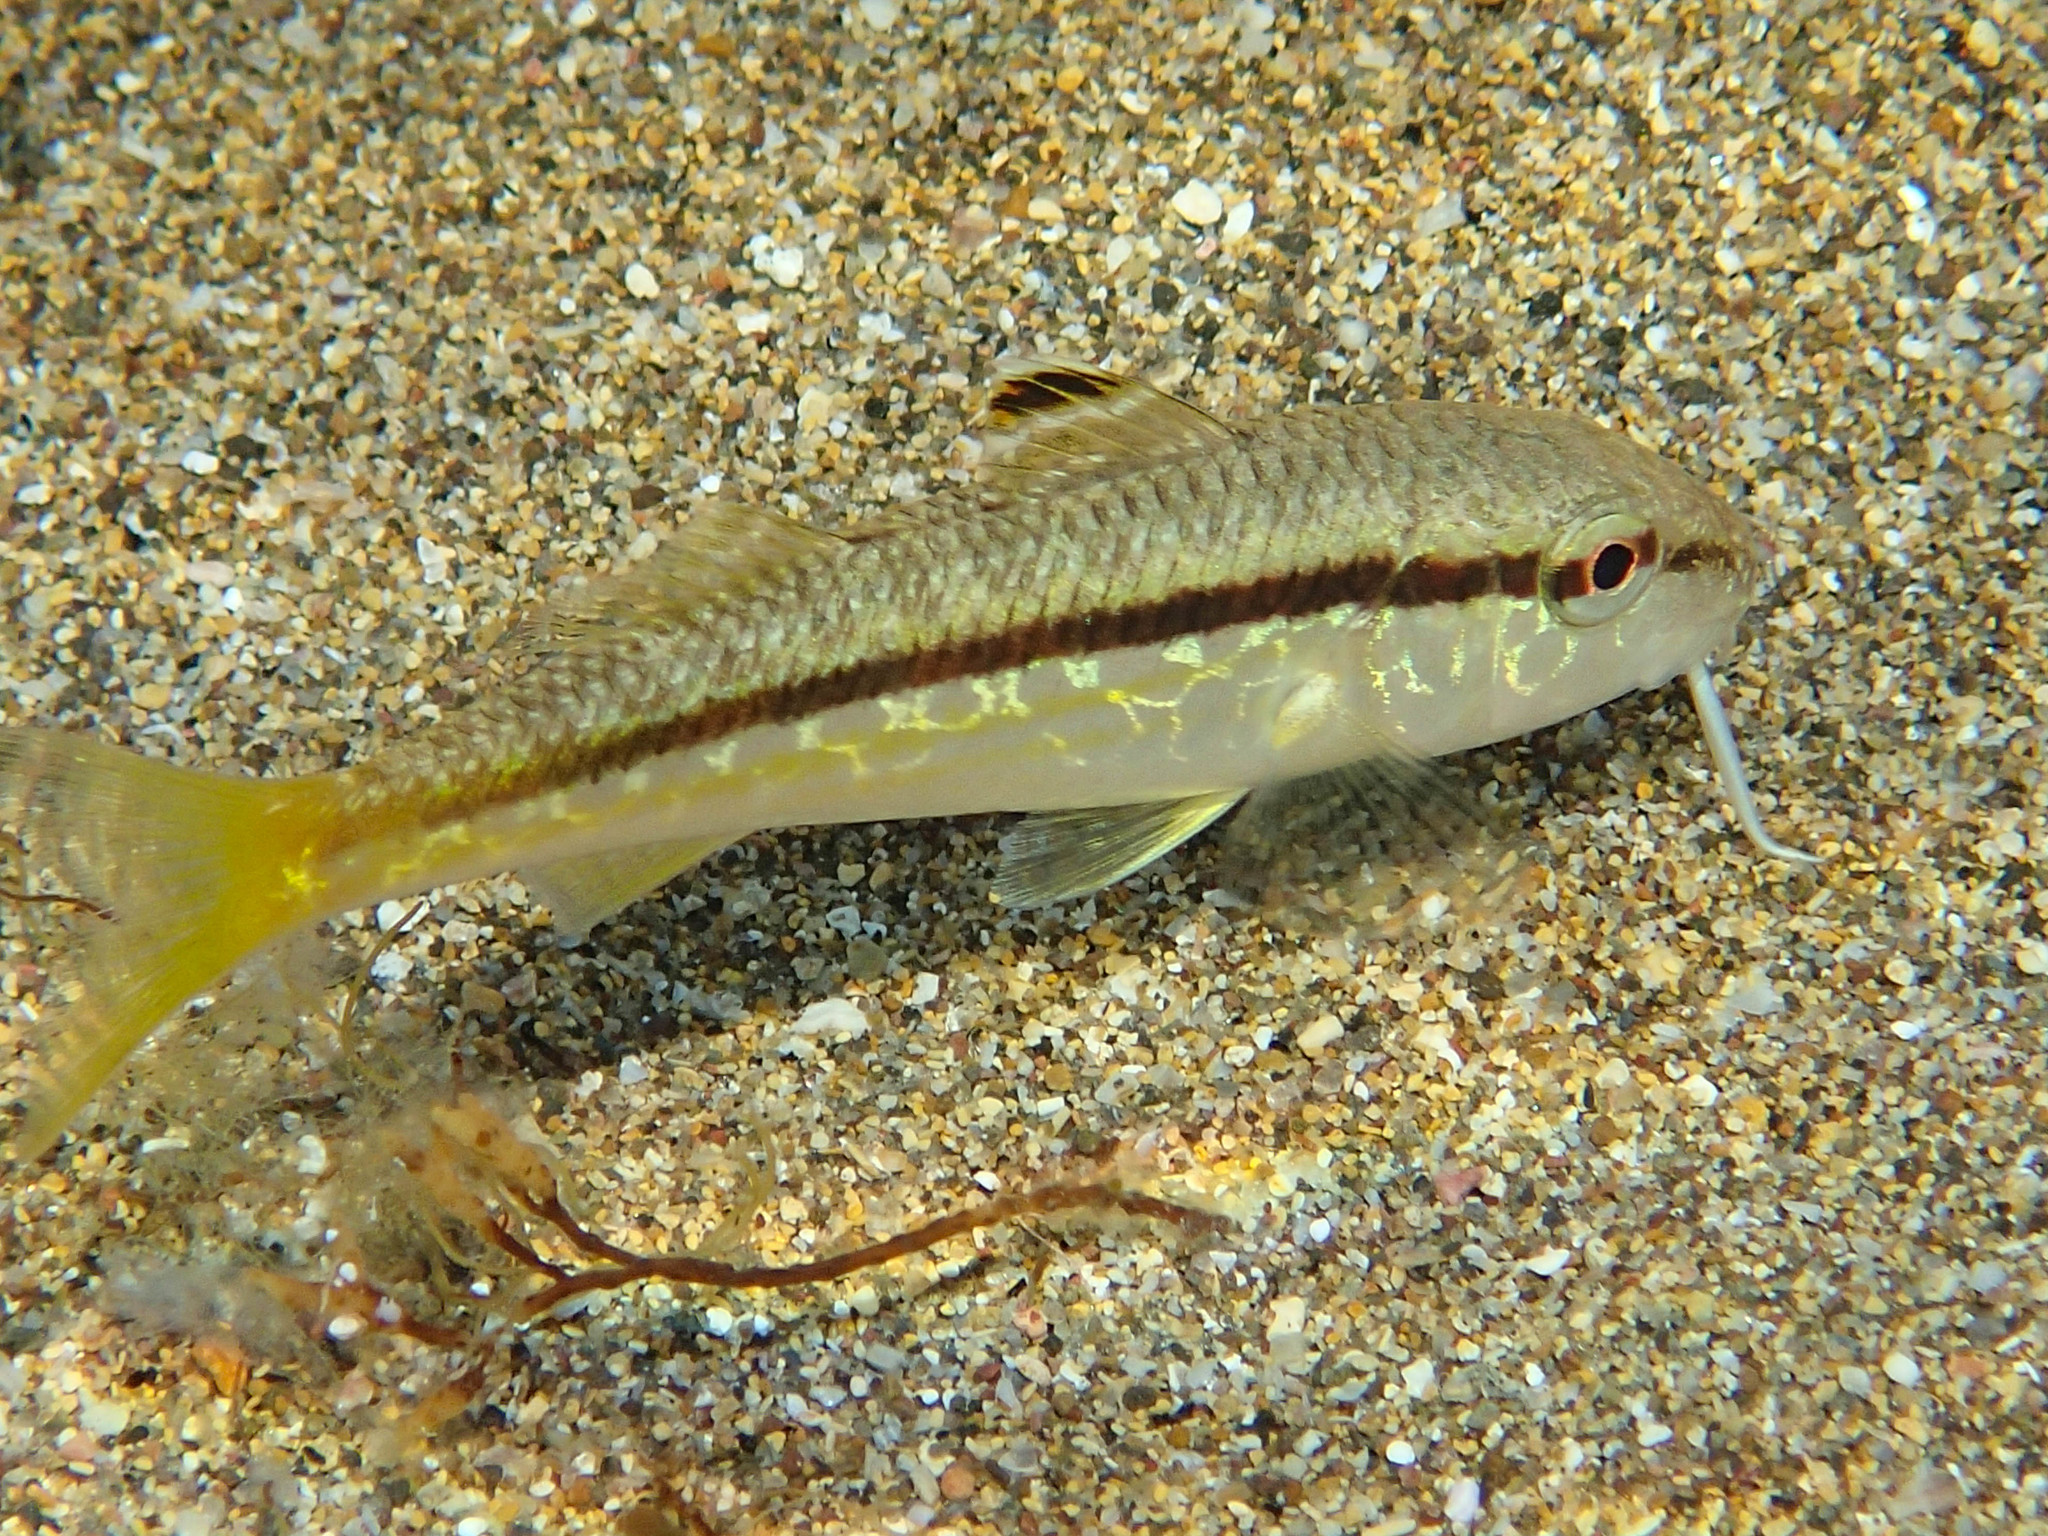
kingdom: Animalia
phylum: Chordata
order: Perciformes
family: Mullidae
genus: Mullus
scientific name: Mullus surmuletus
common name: Red mullet
